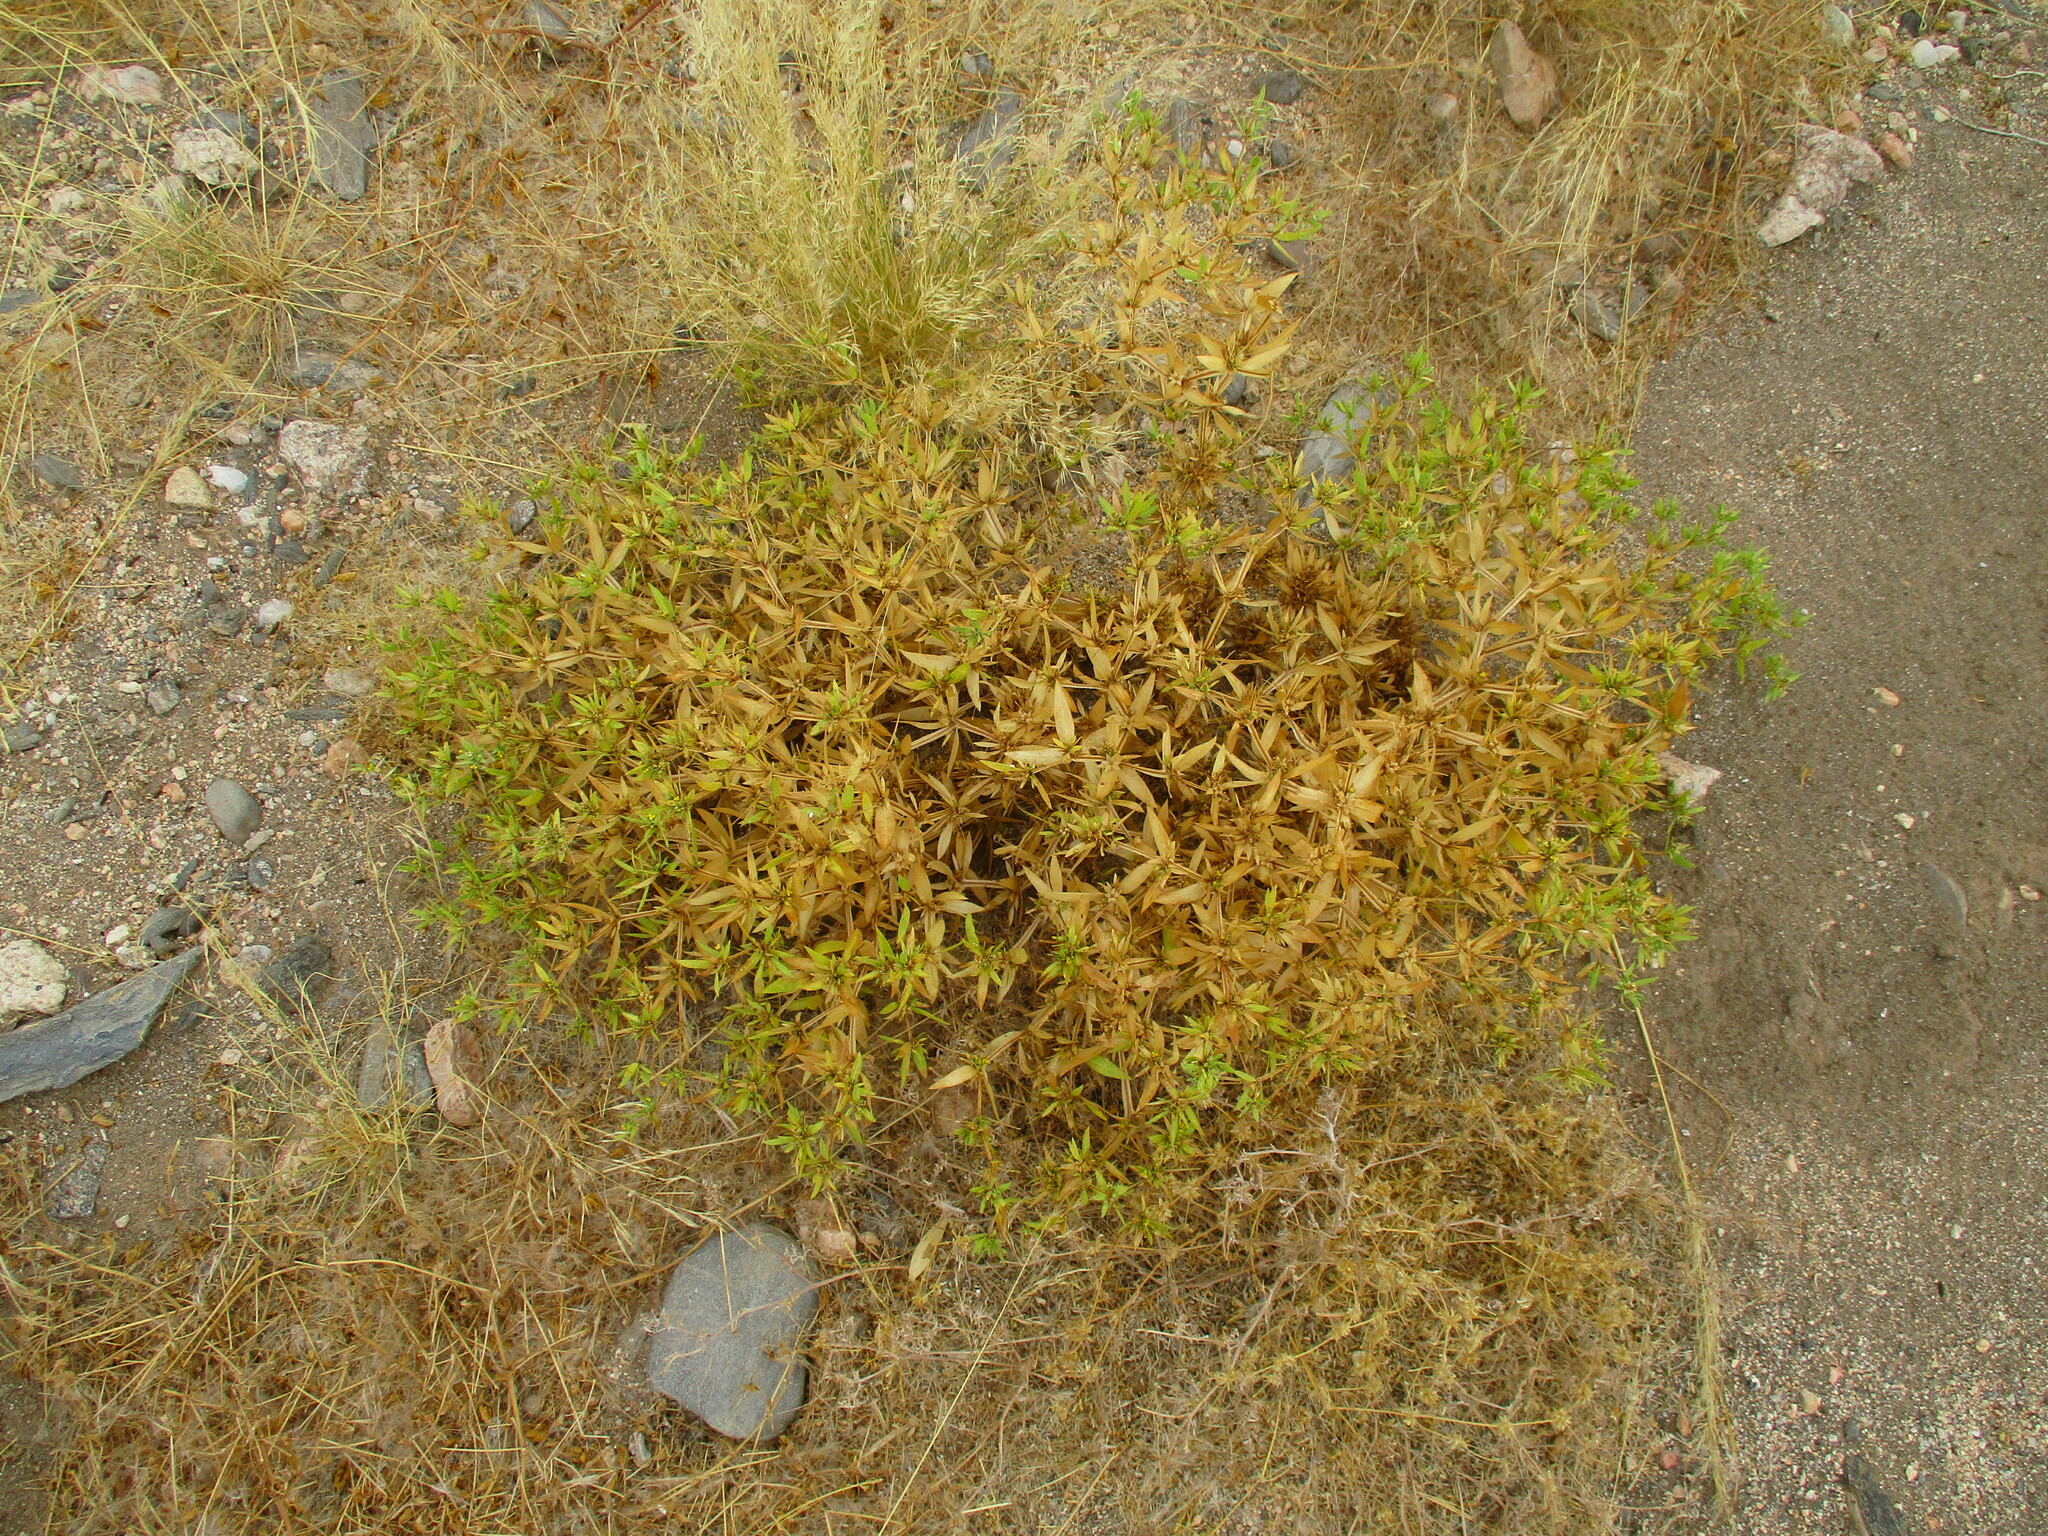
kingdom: Plantae
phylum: Tracheophyta
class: Magnoliopsida
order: Asterales
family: Asteraceae
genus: Geigeria
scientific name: Geigeria alata
